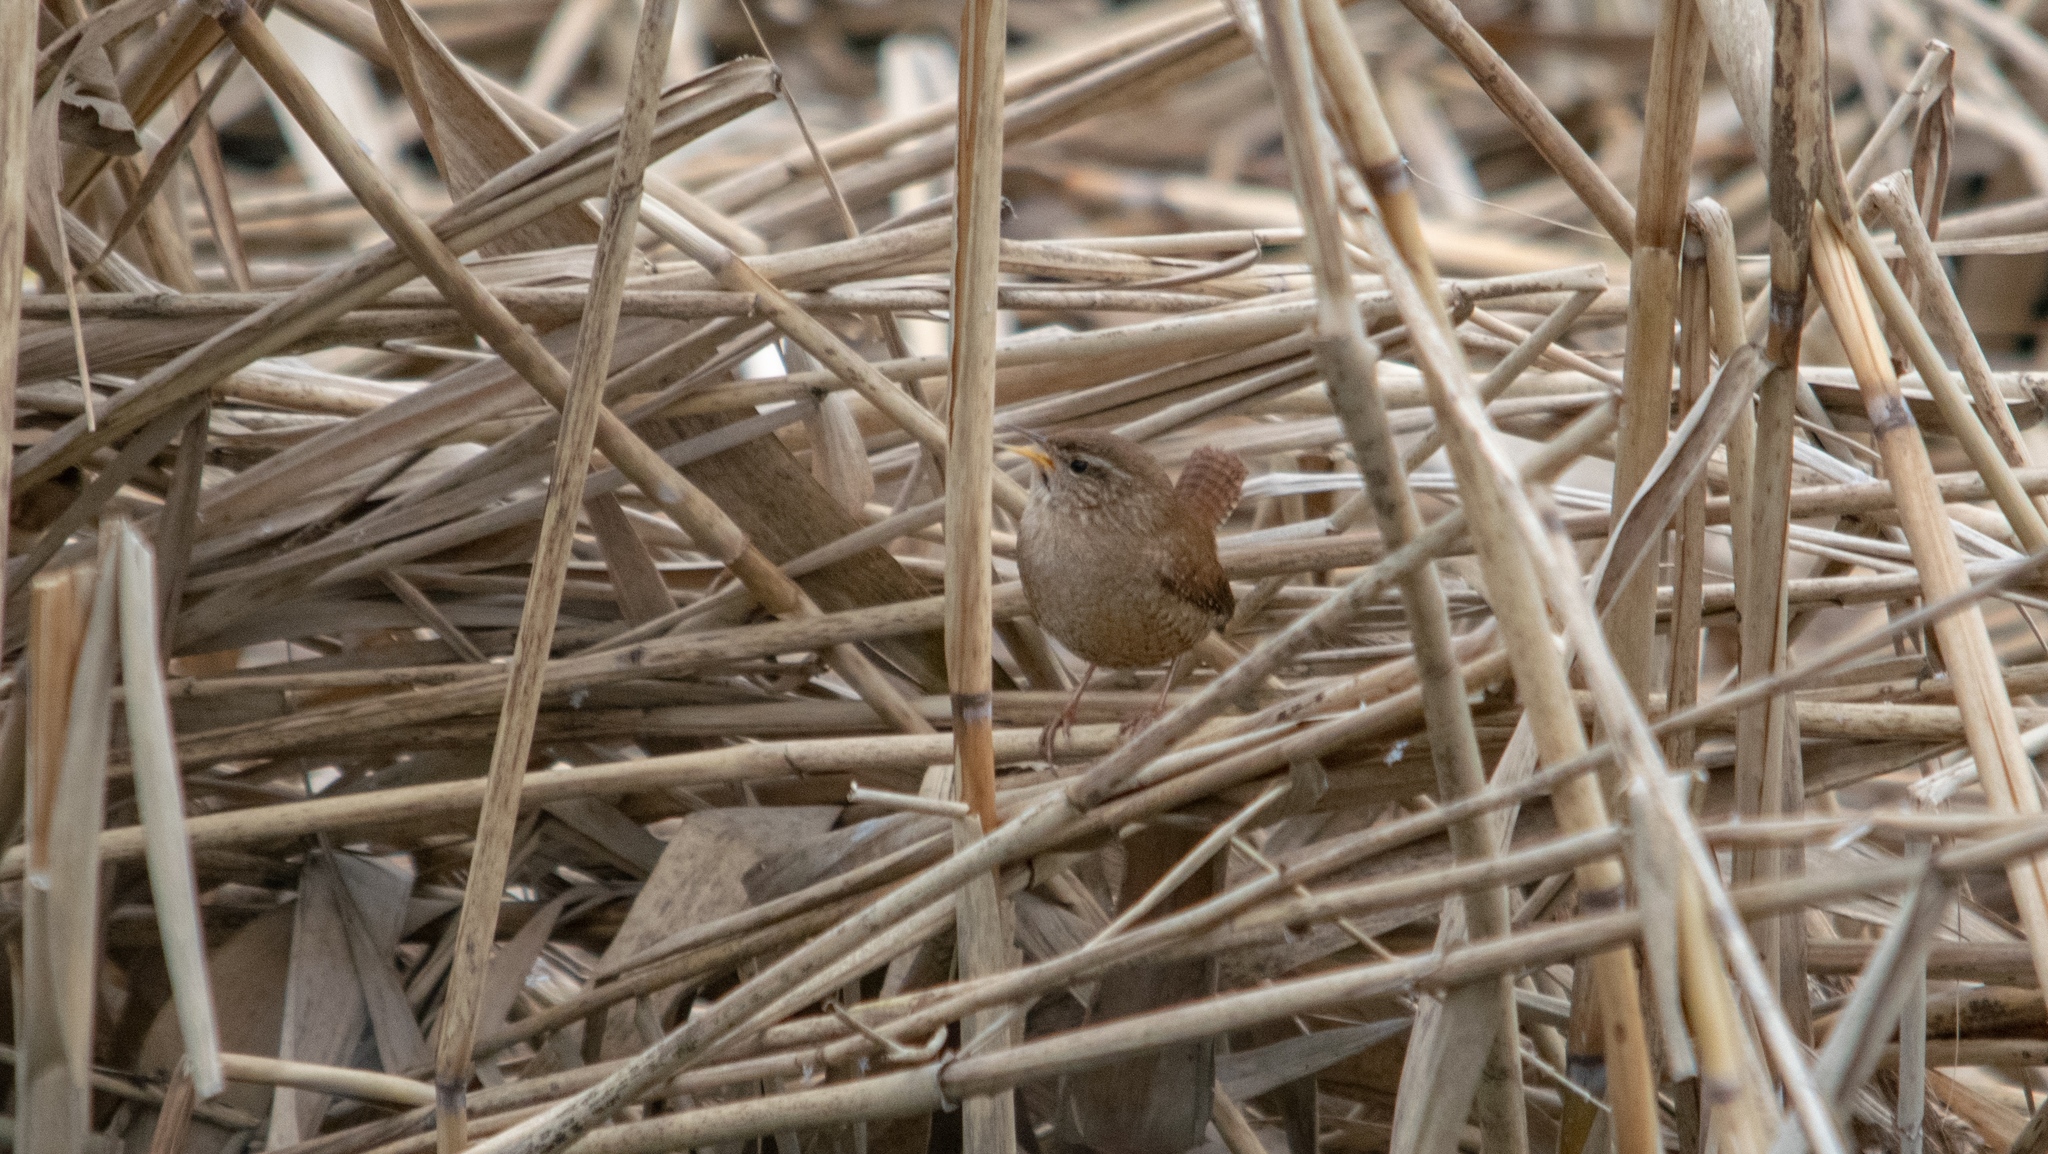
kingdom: Animalia
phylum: Chordata
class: Aves
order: Passeriformes
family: Troglodytidae
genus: Troglodytes
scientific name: Troglodytes troglodytes
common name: Eurasian wren
